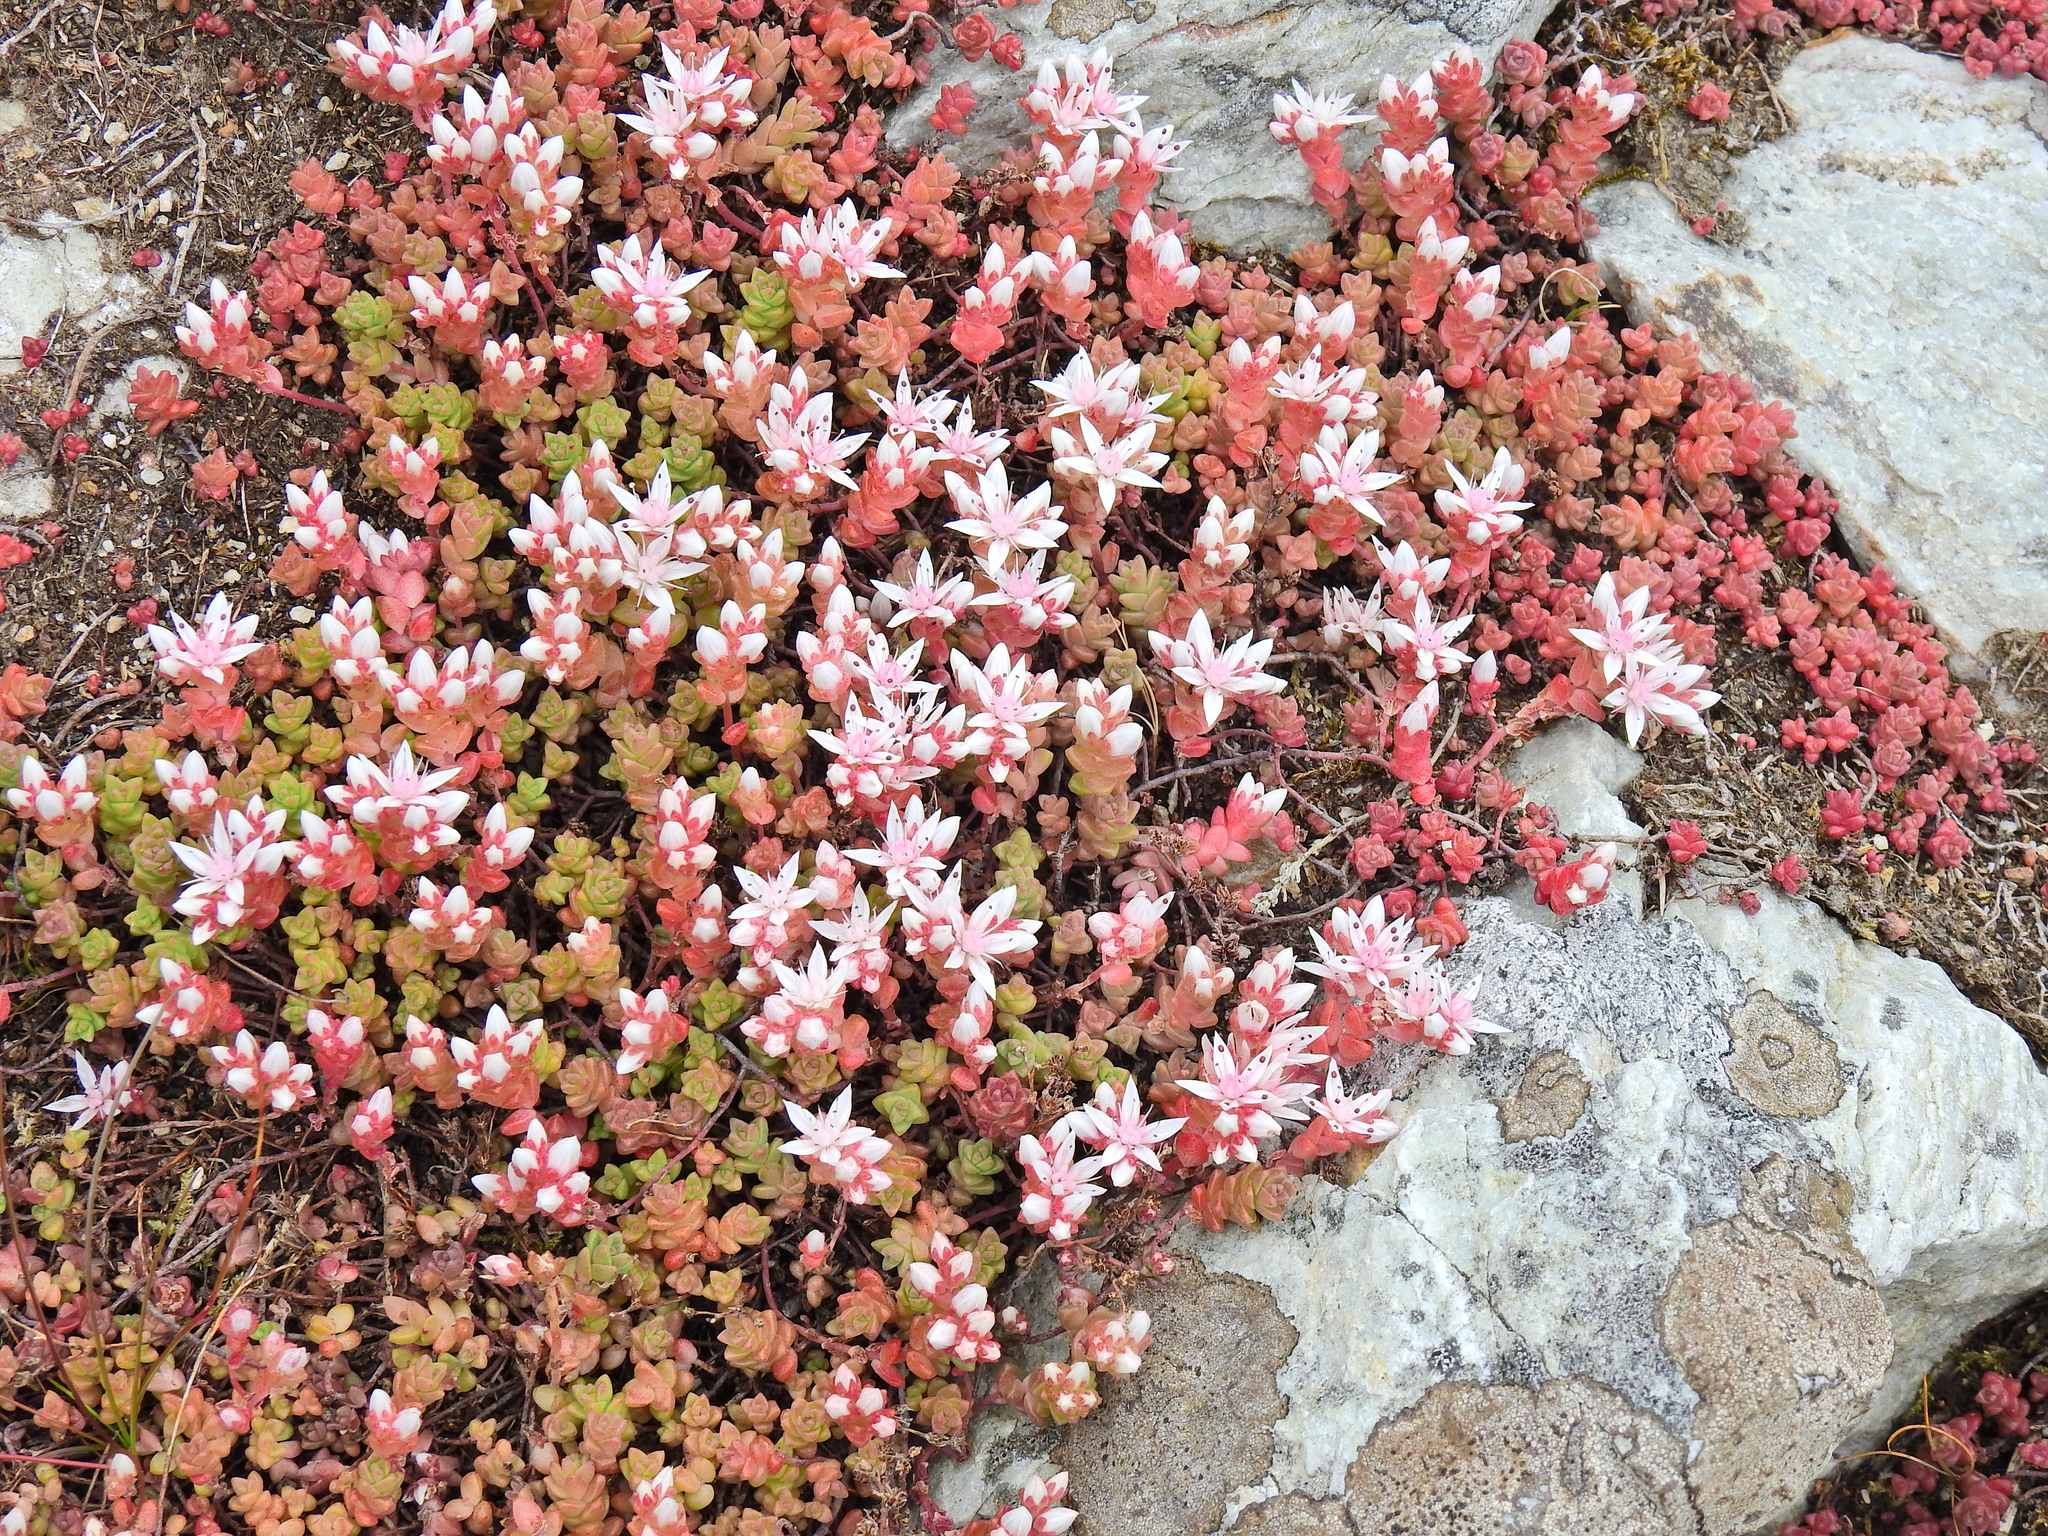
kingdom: Plantae
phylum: Tracheophyta
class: Magnoliopsida
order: Saxifragales
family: Crassulaceae
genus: Sedum
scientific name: Sedum anglicum
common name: English stonecrop
